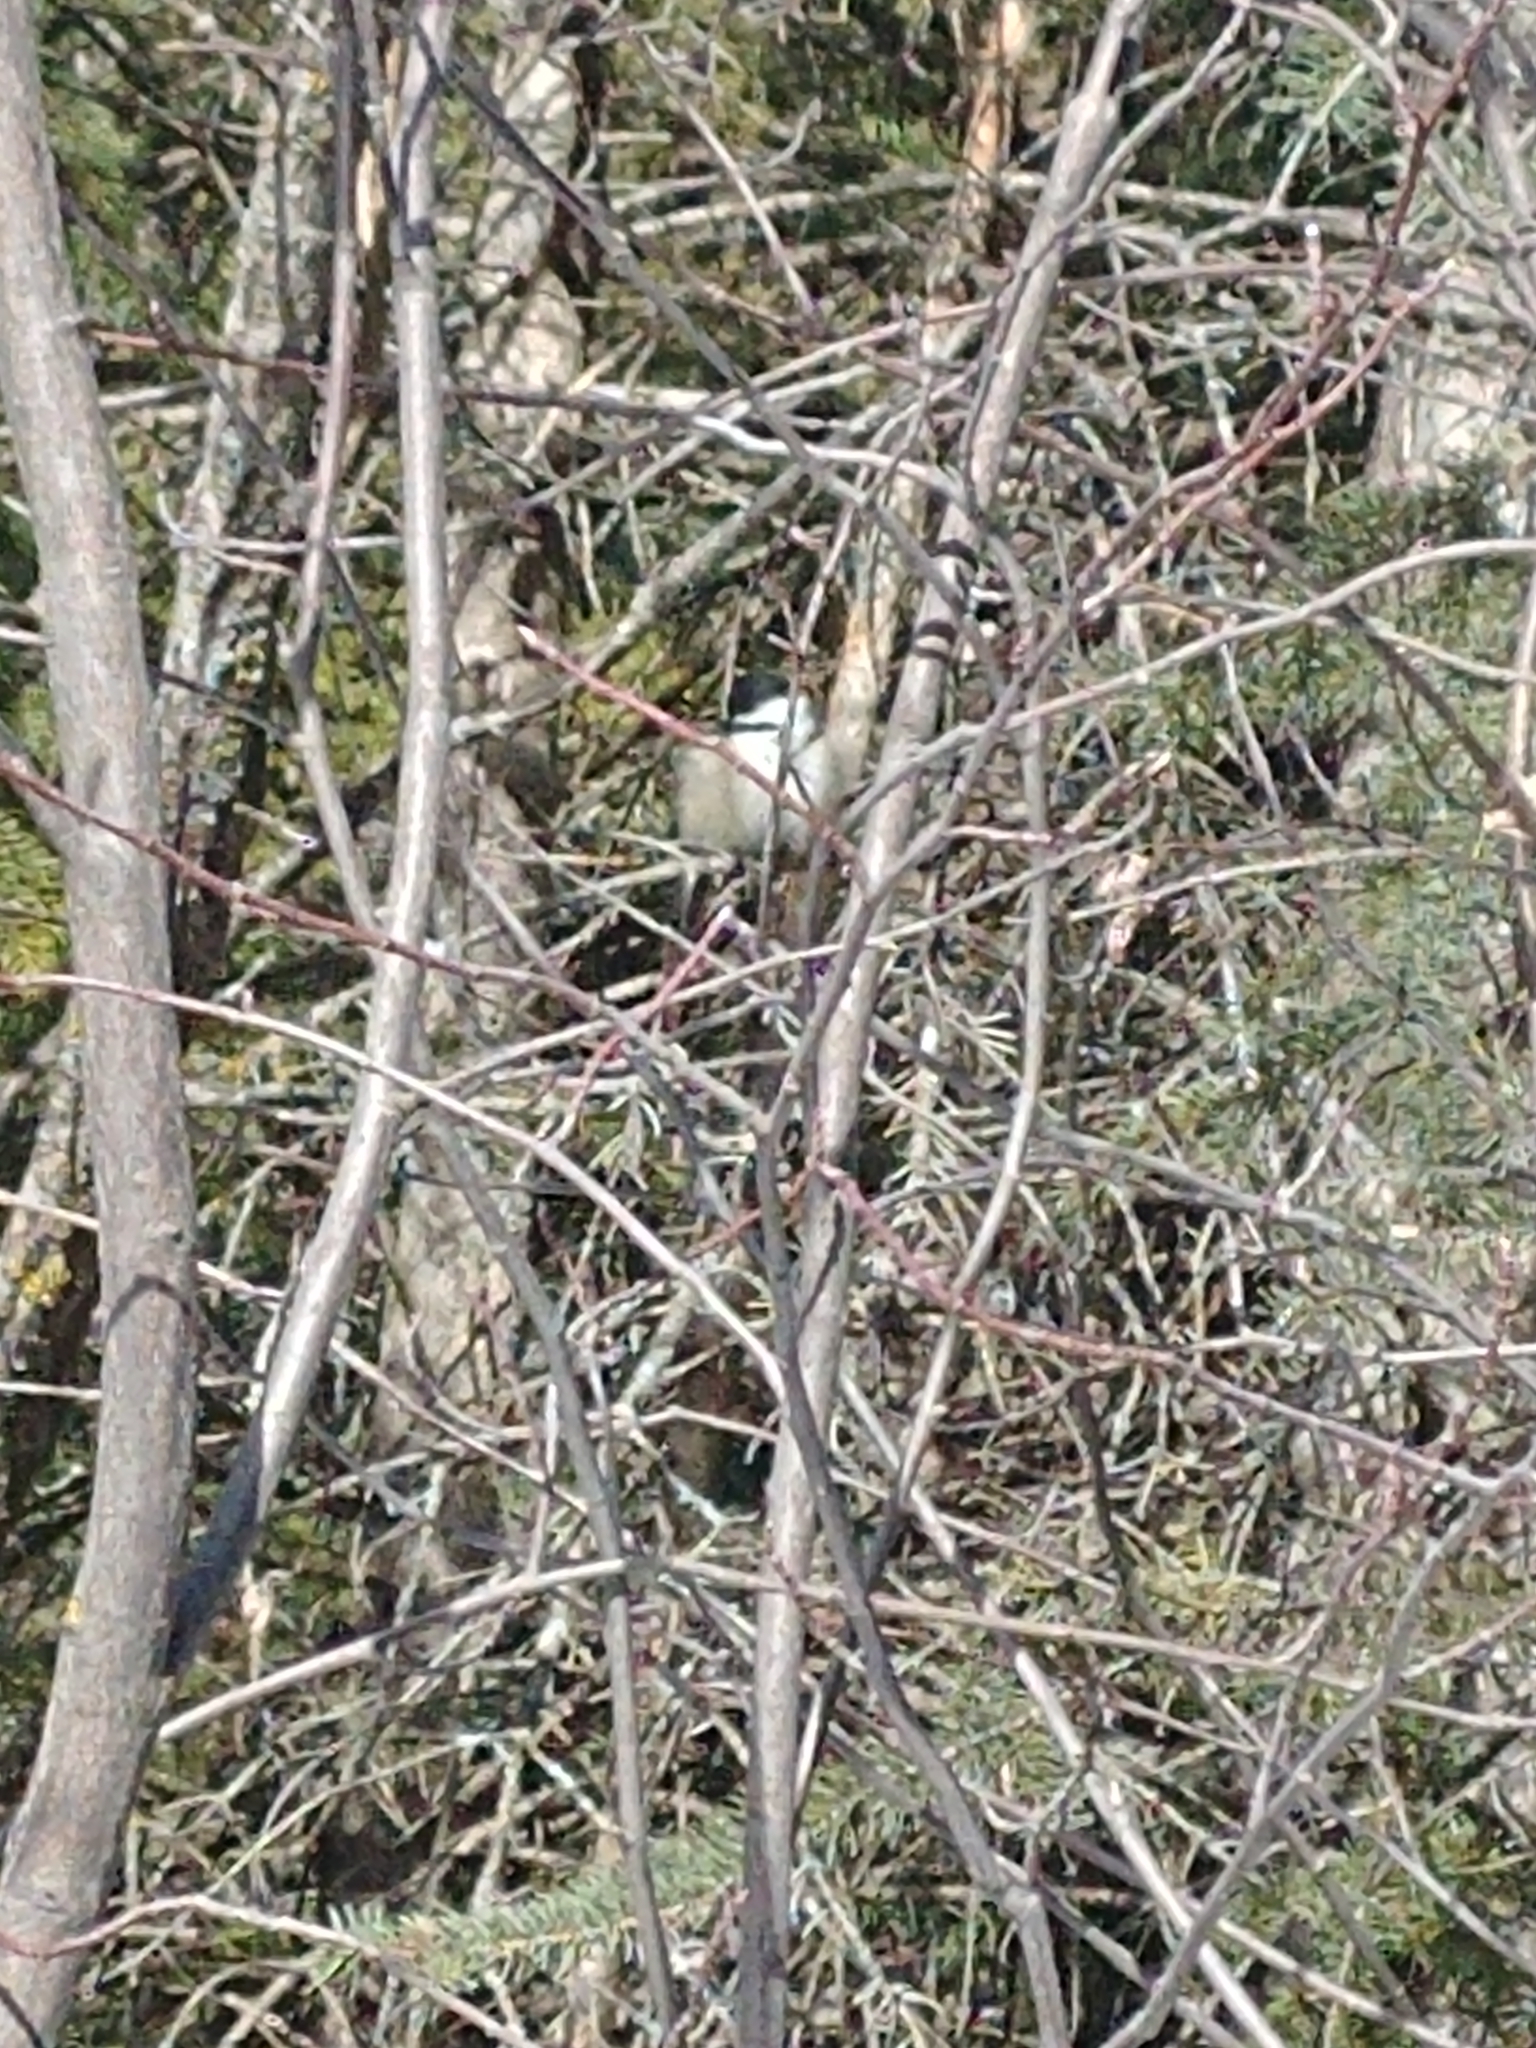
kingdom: Animalia
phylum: Chordata
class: Aves
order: Passeriformes
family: Paridae
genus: Poecile
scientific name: Poecile atricapillus
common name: Black-capped chickadee
